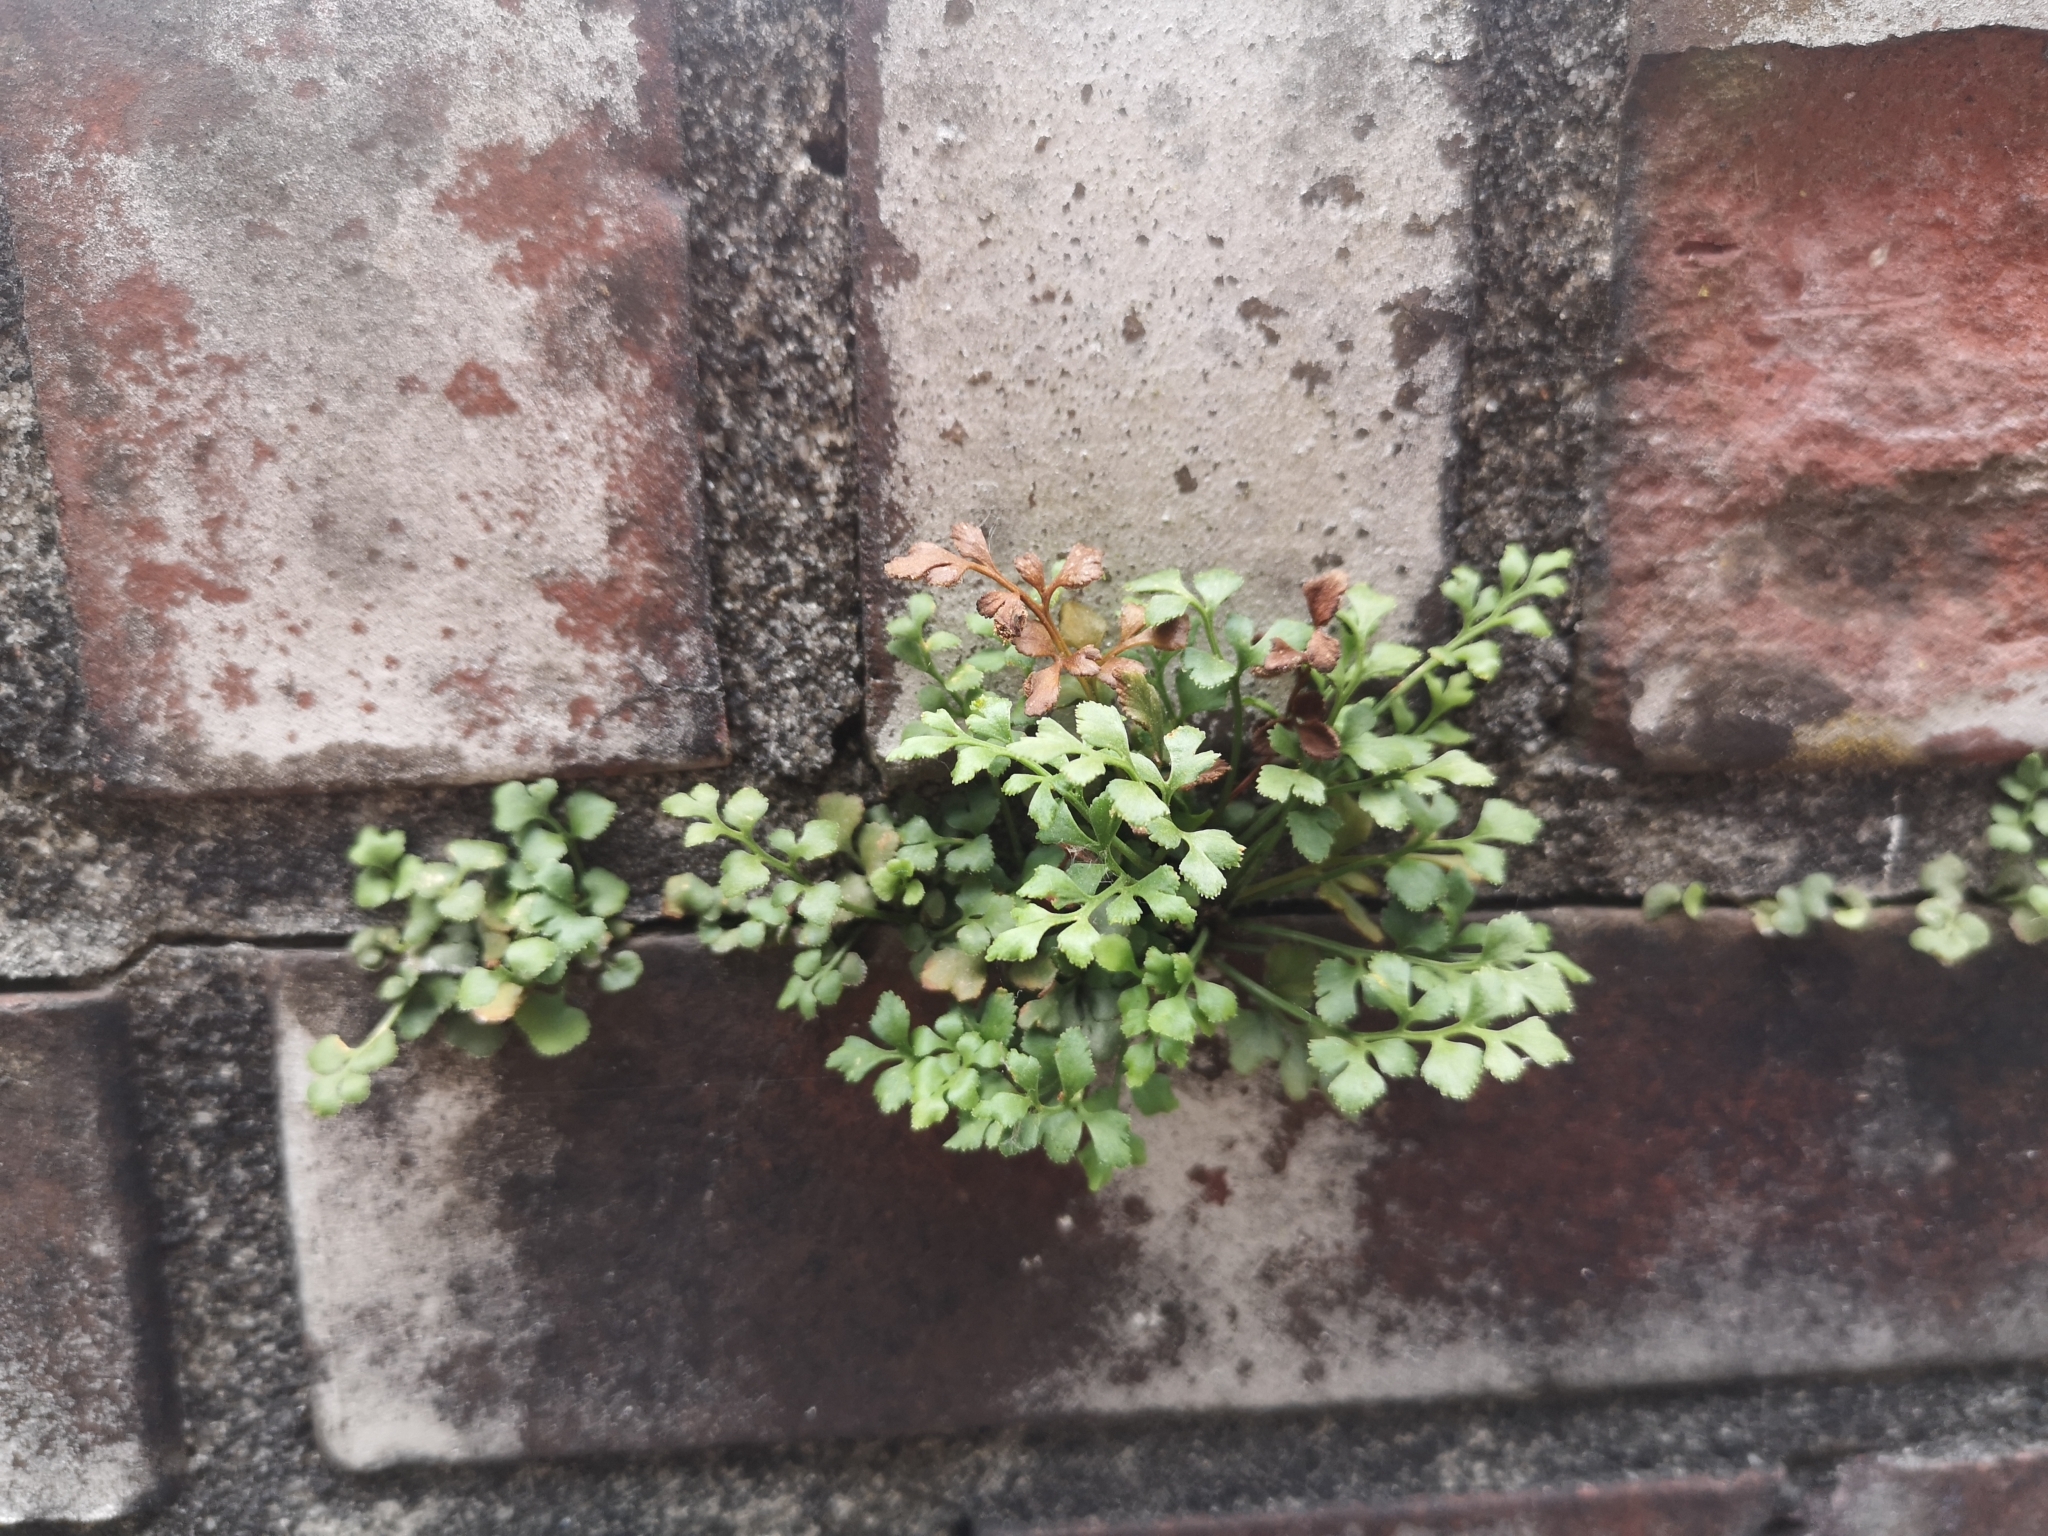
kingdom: Plantae
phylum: Tracheophyta
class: Polypodiopsida
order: Polypodiales
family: Aspleniaceae
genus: Asplenium
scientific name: Asplenium ruta-muraria
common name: Wall-rue
